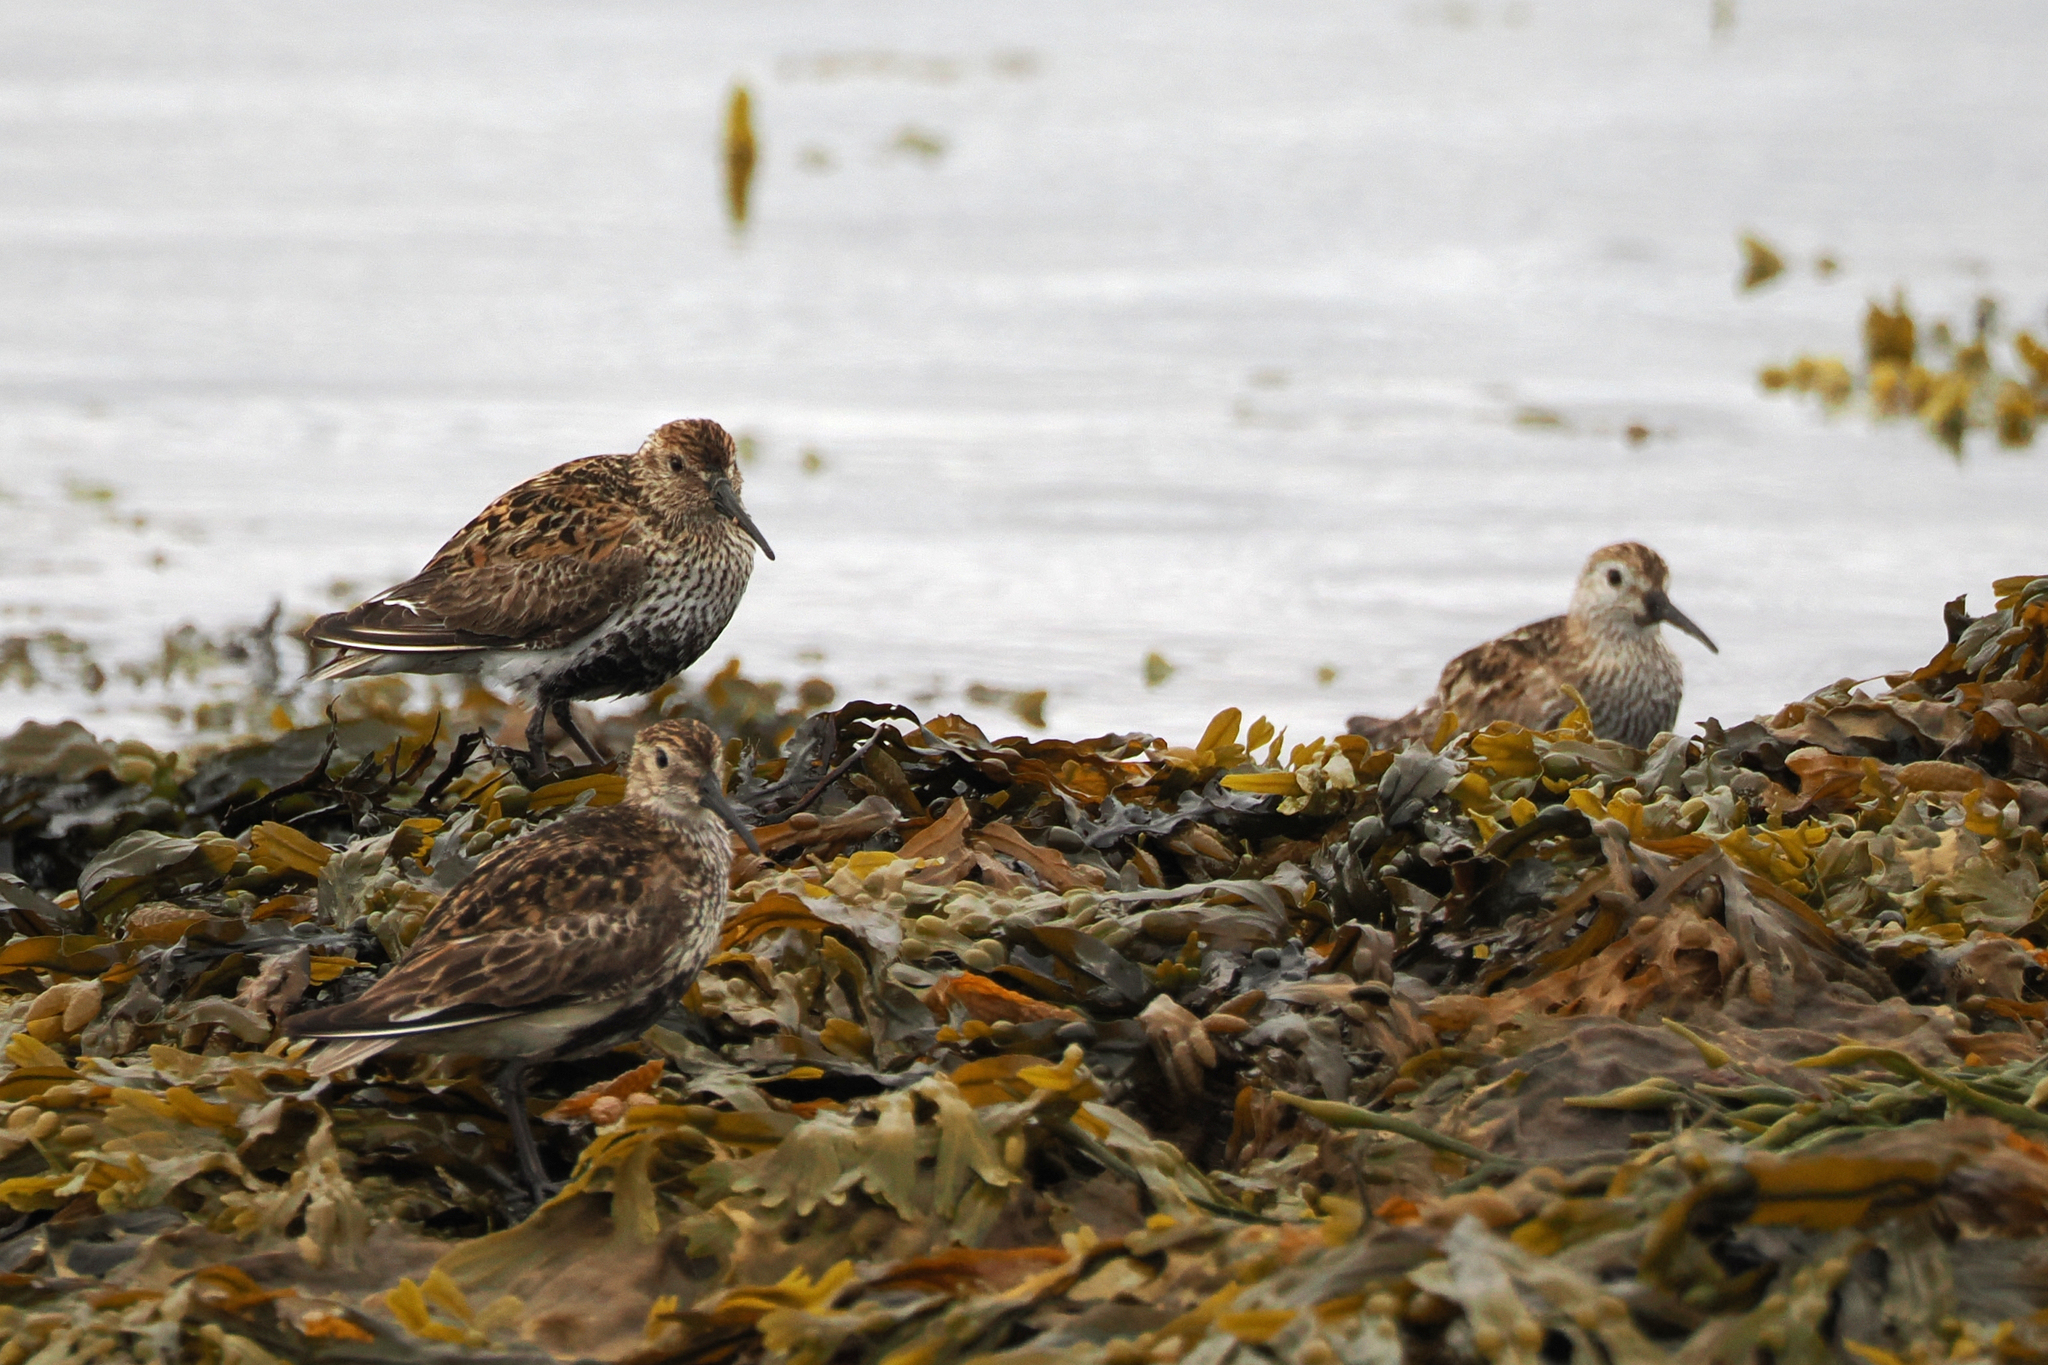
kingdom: Animalia
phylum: Chordata
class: Aves
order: Charadriiformes
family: Scolopacidae
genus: Calidris
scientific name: Calidris alpina
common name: Dunlin
